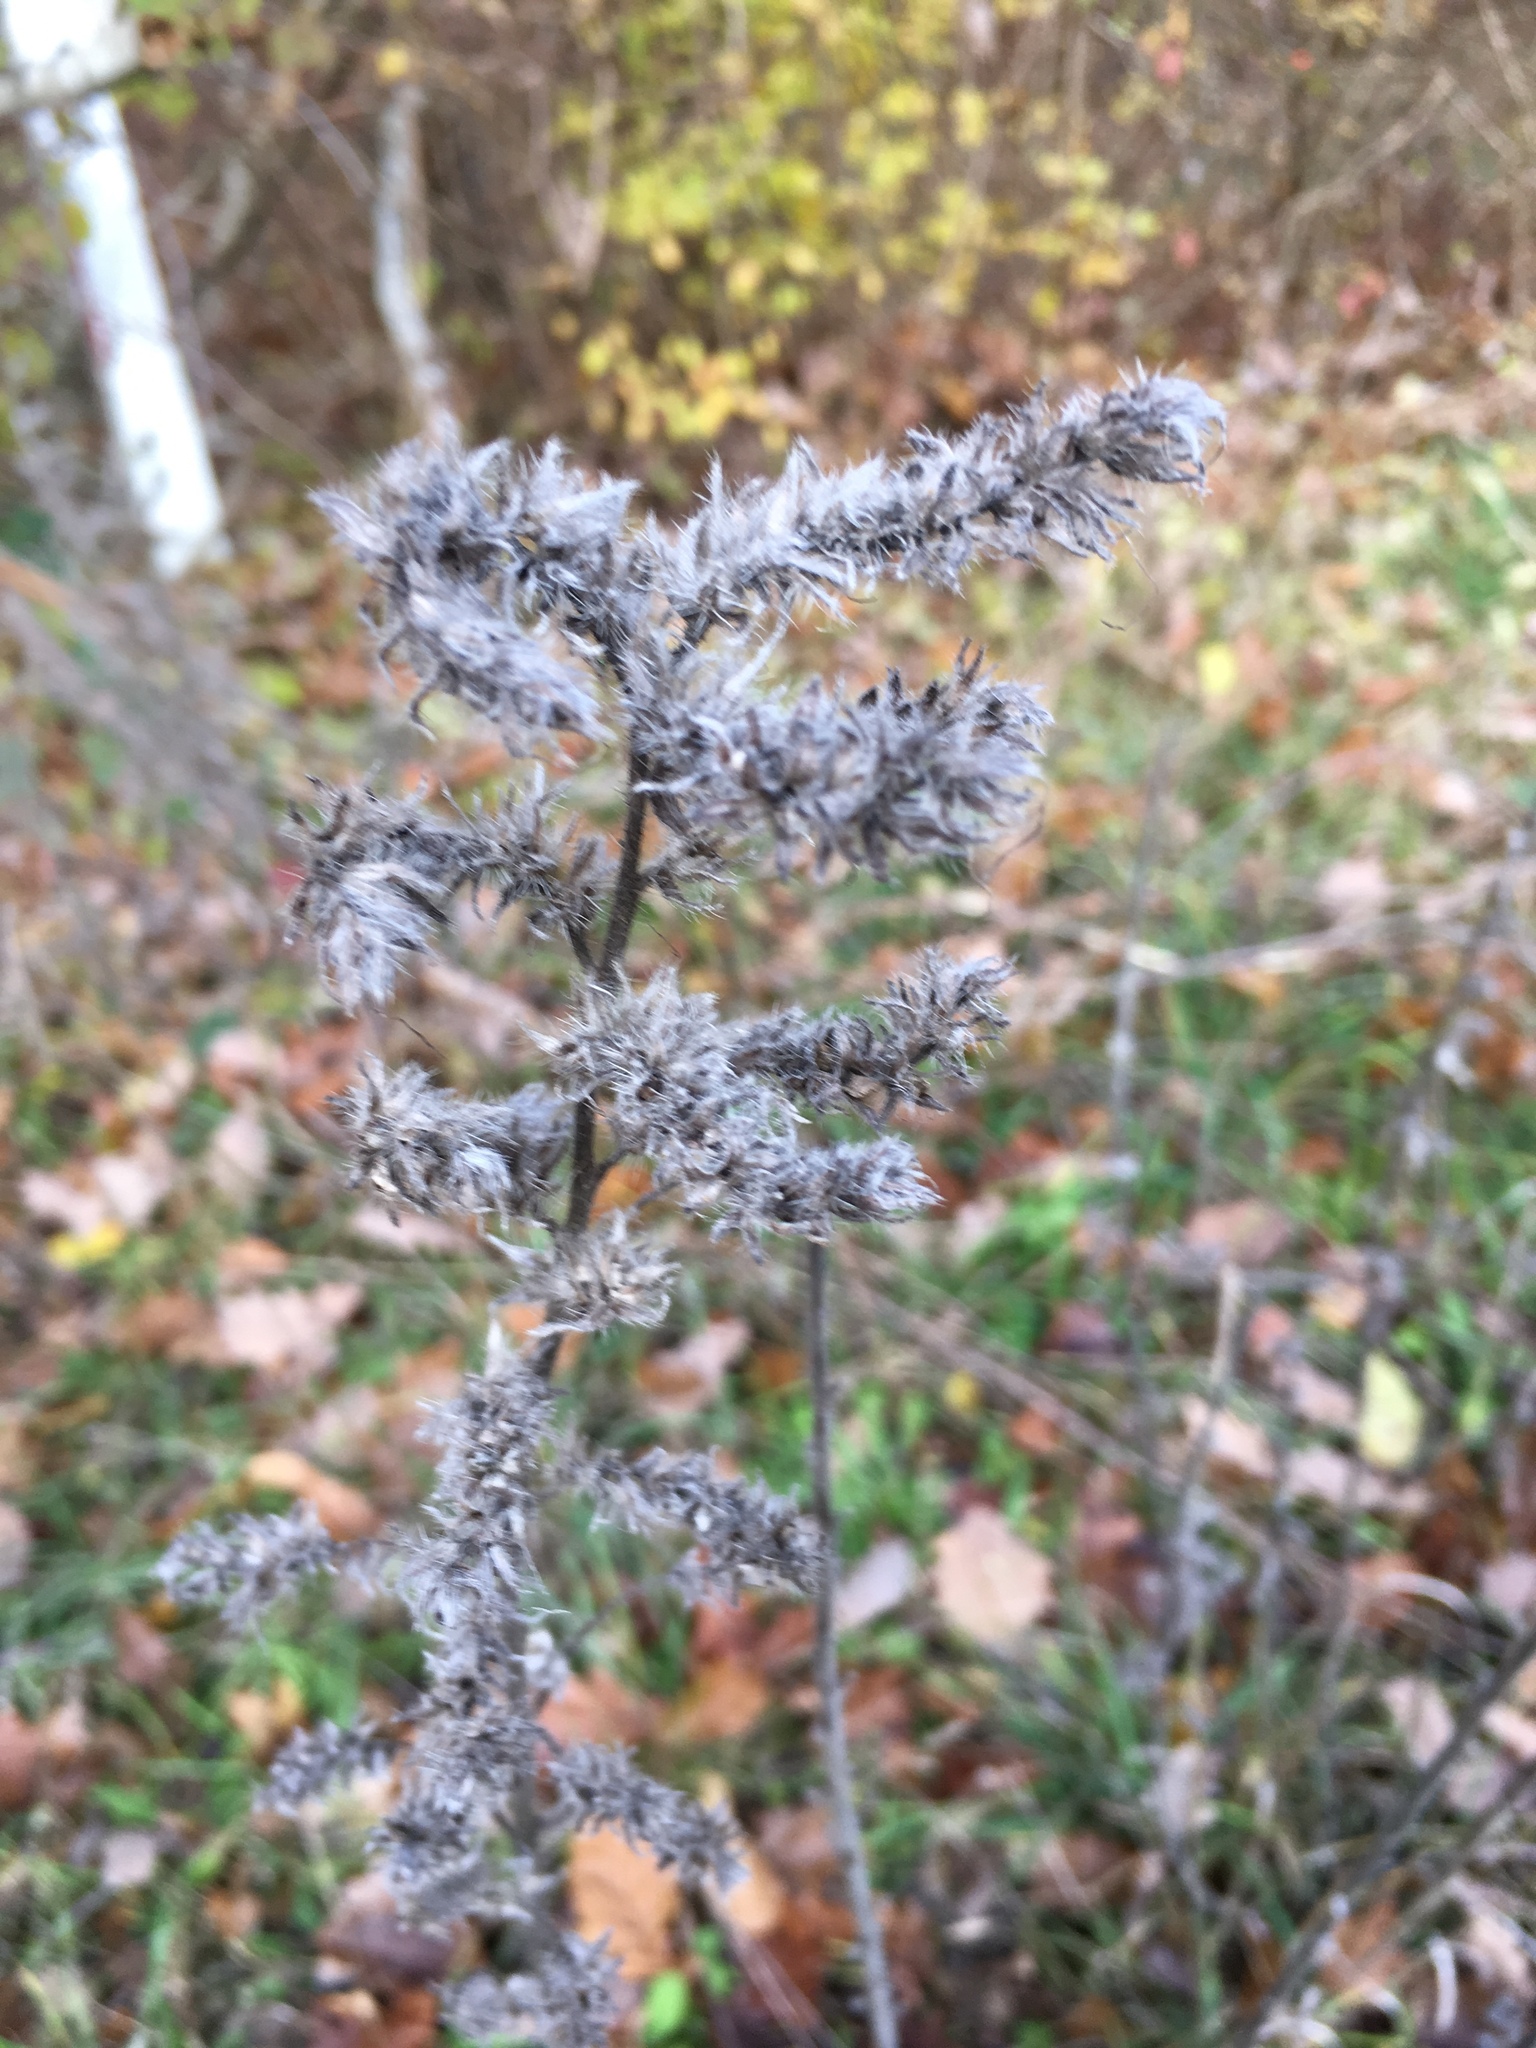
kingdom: Plantae
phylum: Tracheophyta
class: Magnoliopsida
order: Boraginales
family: Boraginaceae
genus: Echium
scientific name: Echium vulgare
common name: Common viper's bugloss
